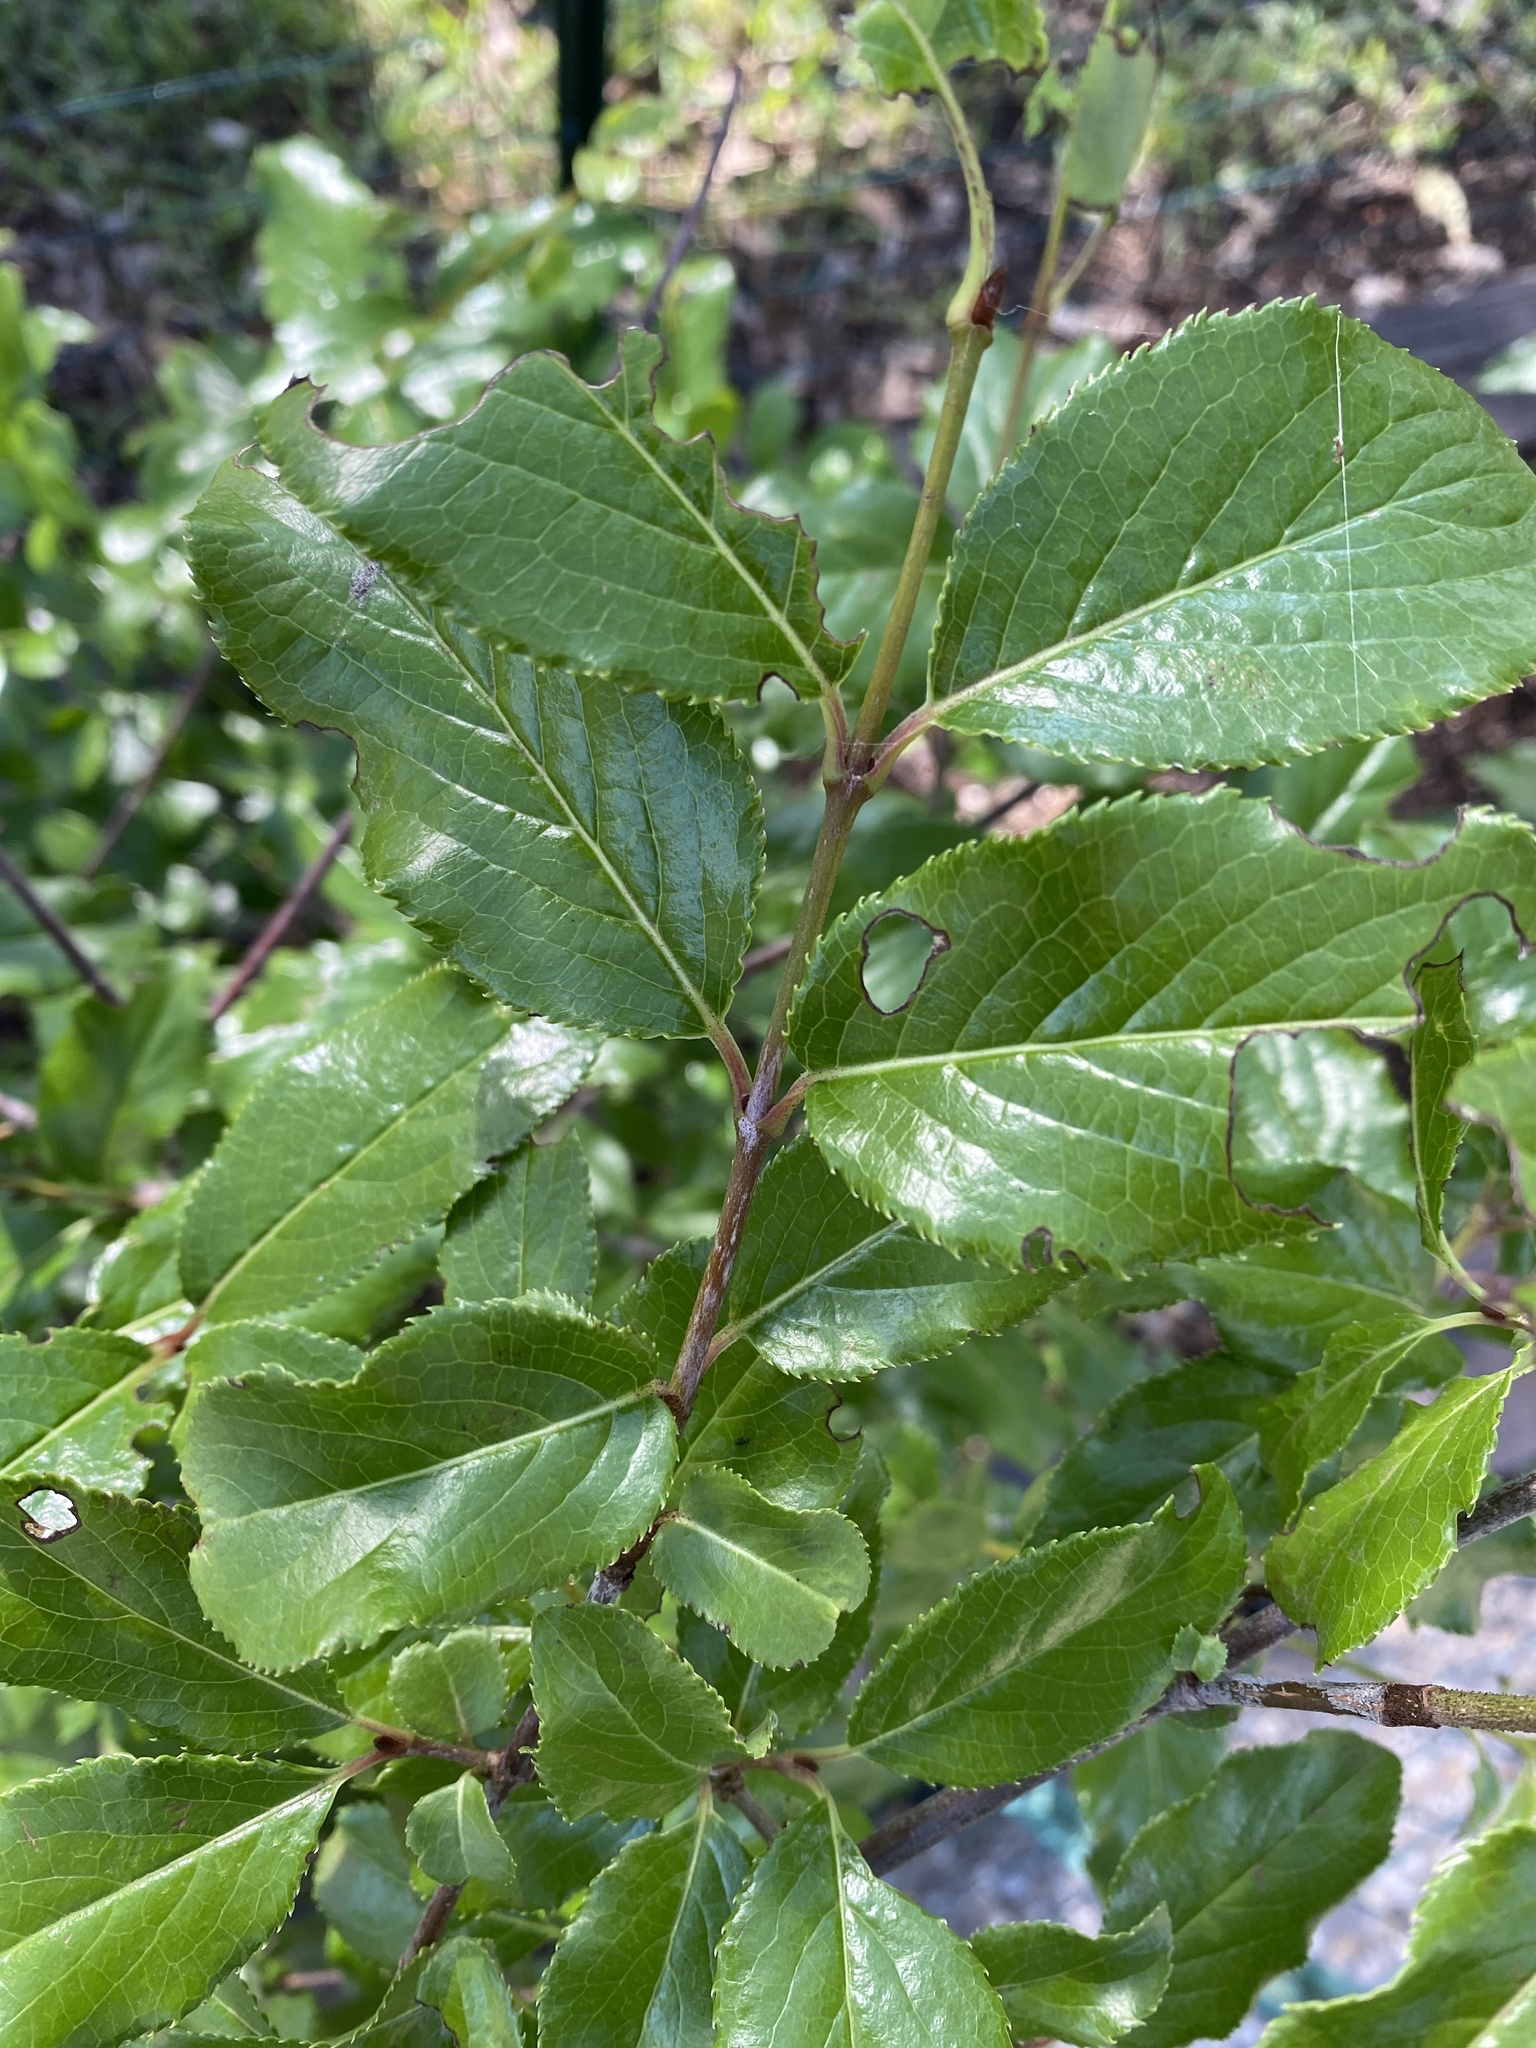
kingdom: Plantae
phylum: Tracheophyta
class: Magnoliopsida
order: Dipsacales
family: Viburnaceae
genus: Viburnum
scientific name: Viburnum rufidulum
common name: Blue haw
